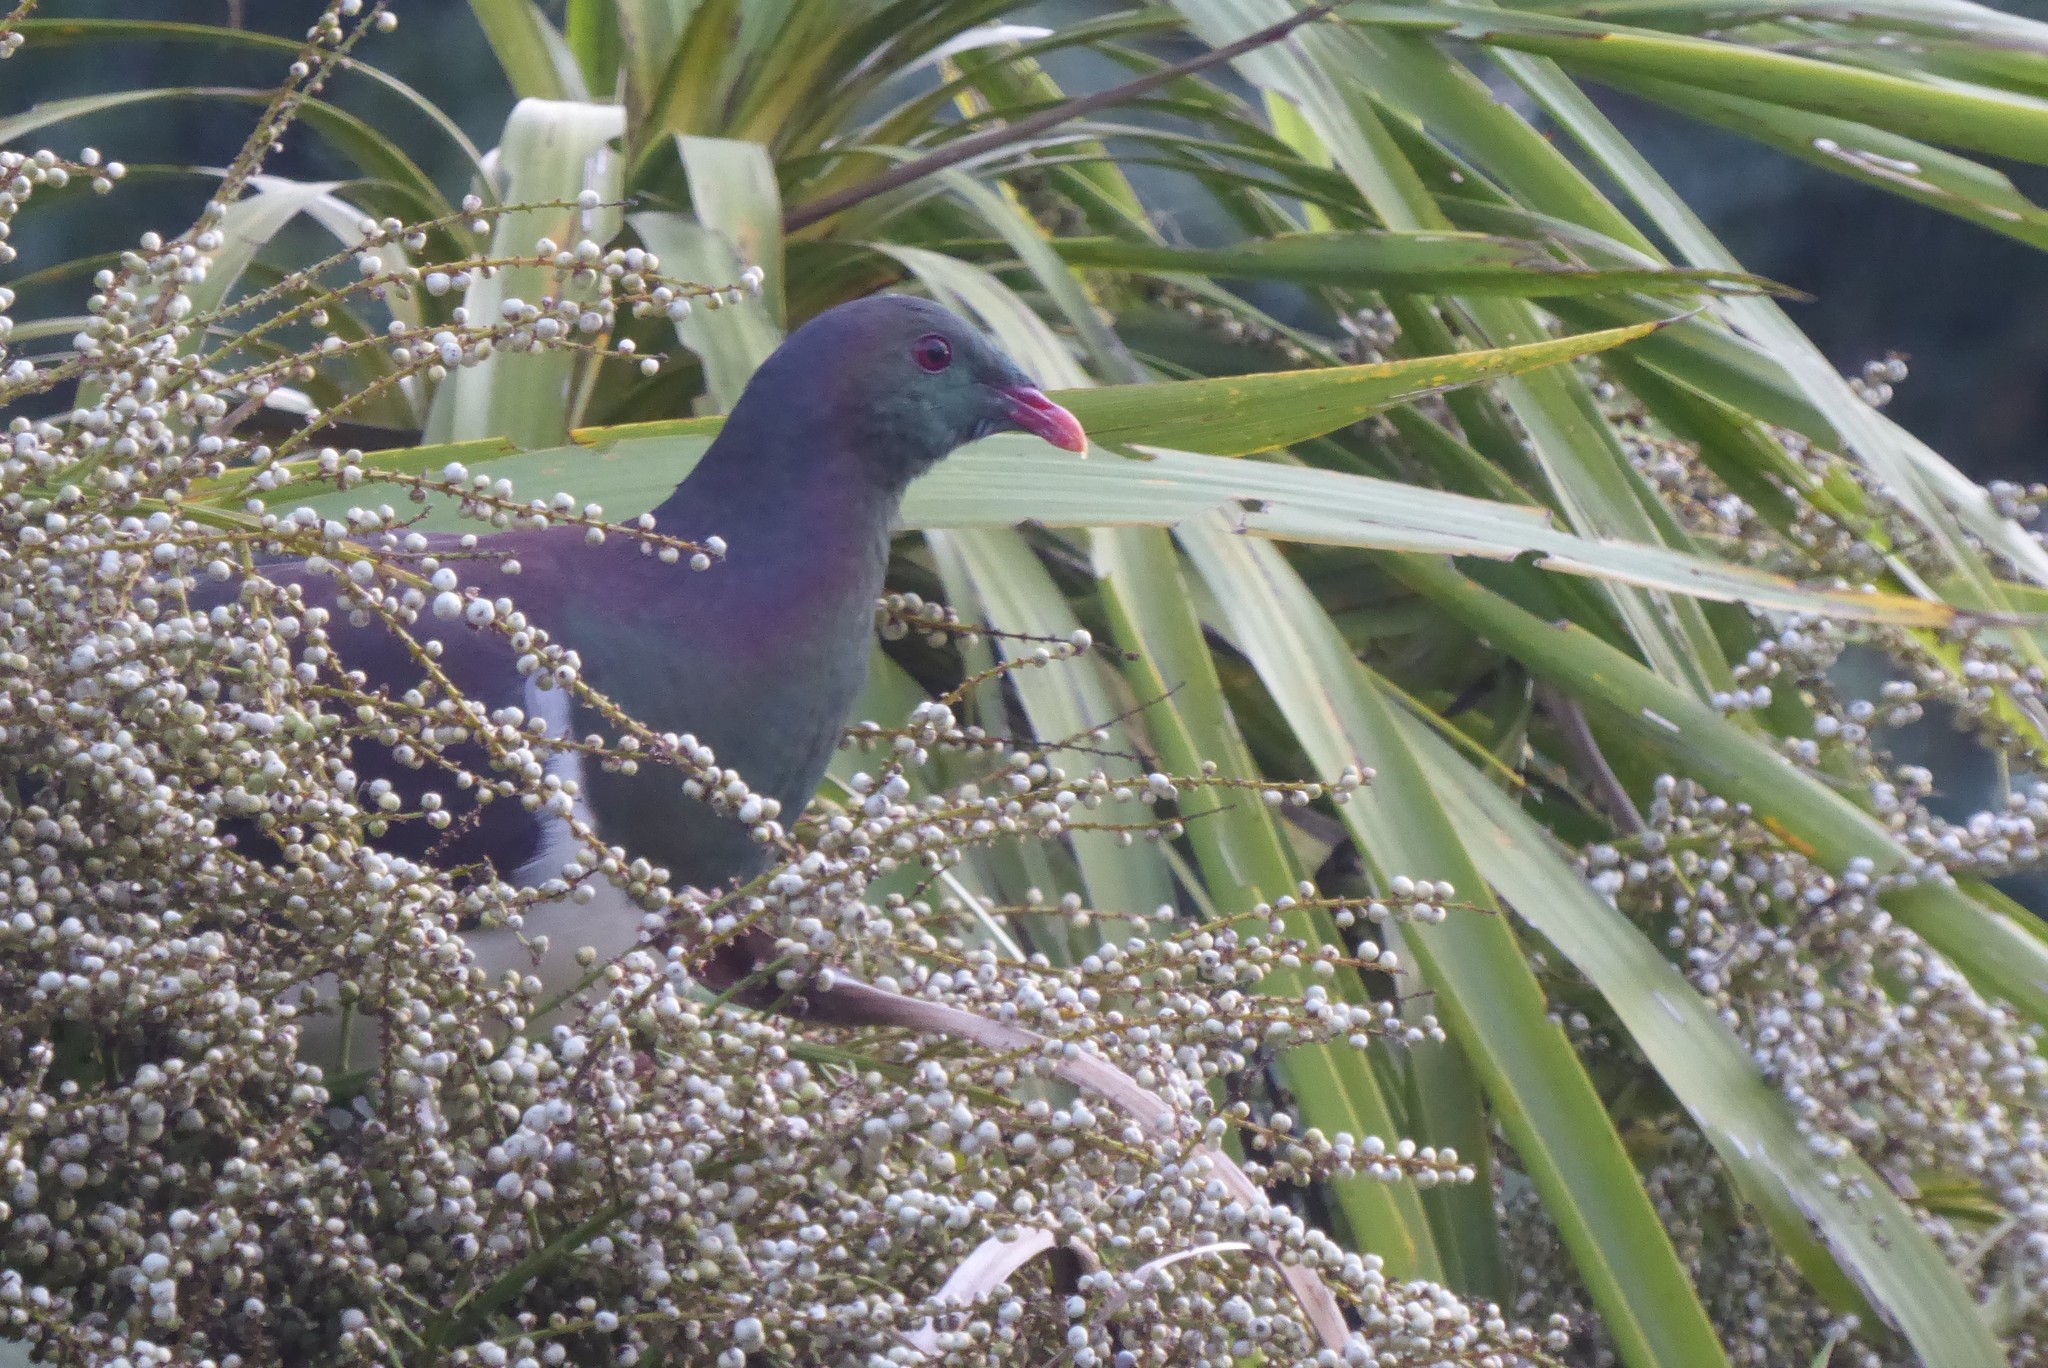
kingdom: Animalia
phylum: Chordata
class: Aves
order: Columbiformes
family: Columbidae
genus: Hemiphaga
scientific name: Hemiphaga novaeseelandiae
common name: New zealand pigeon
